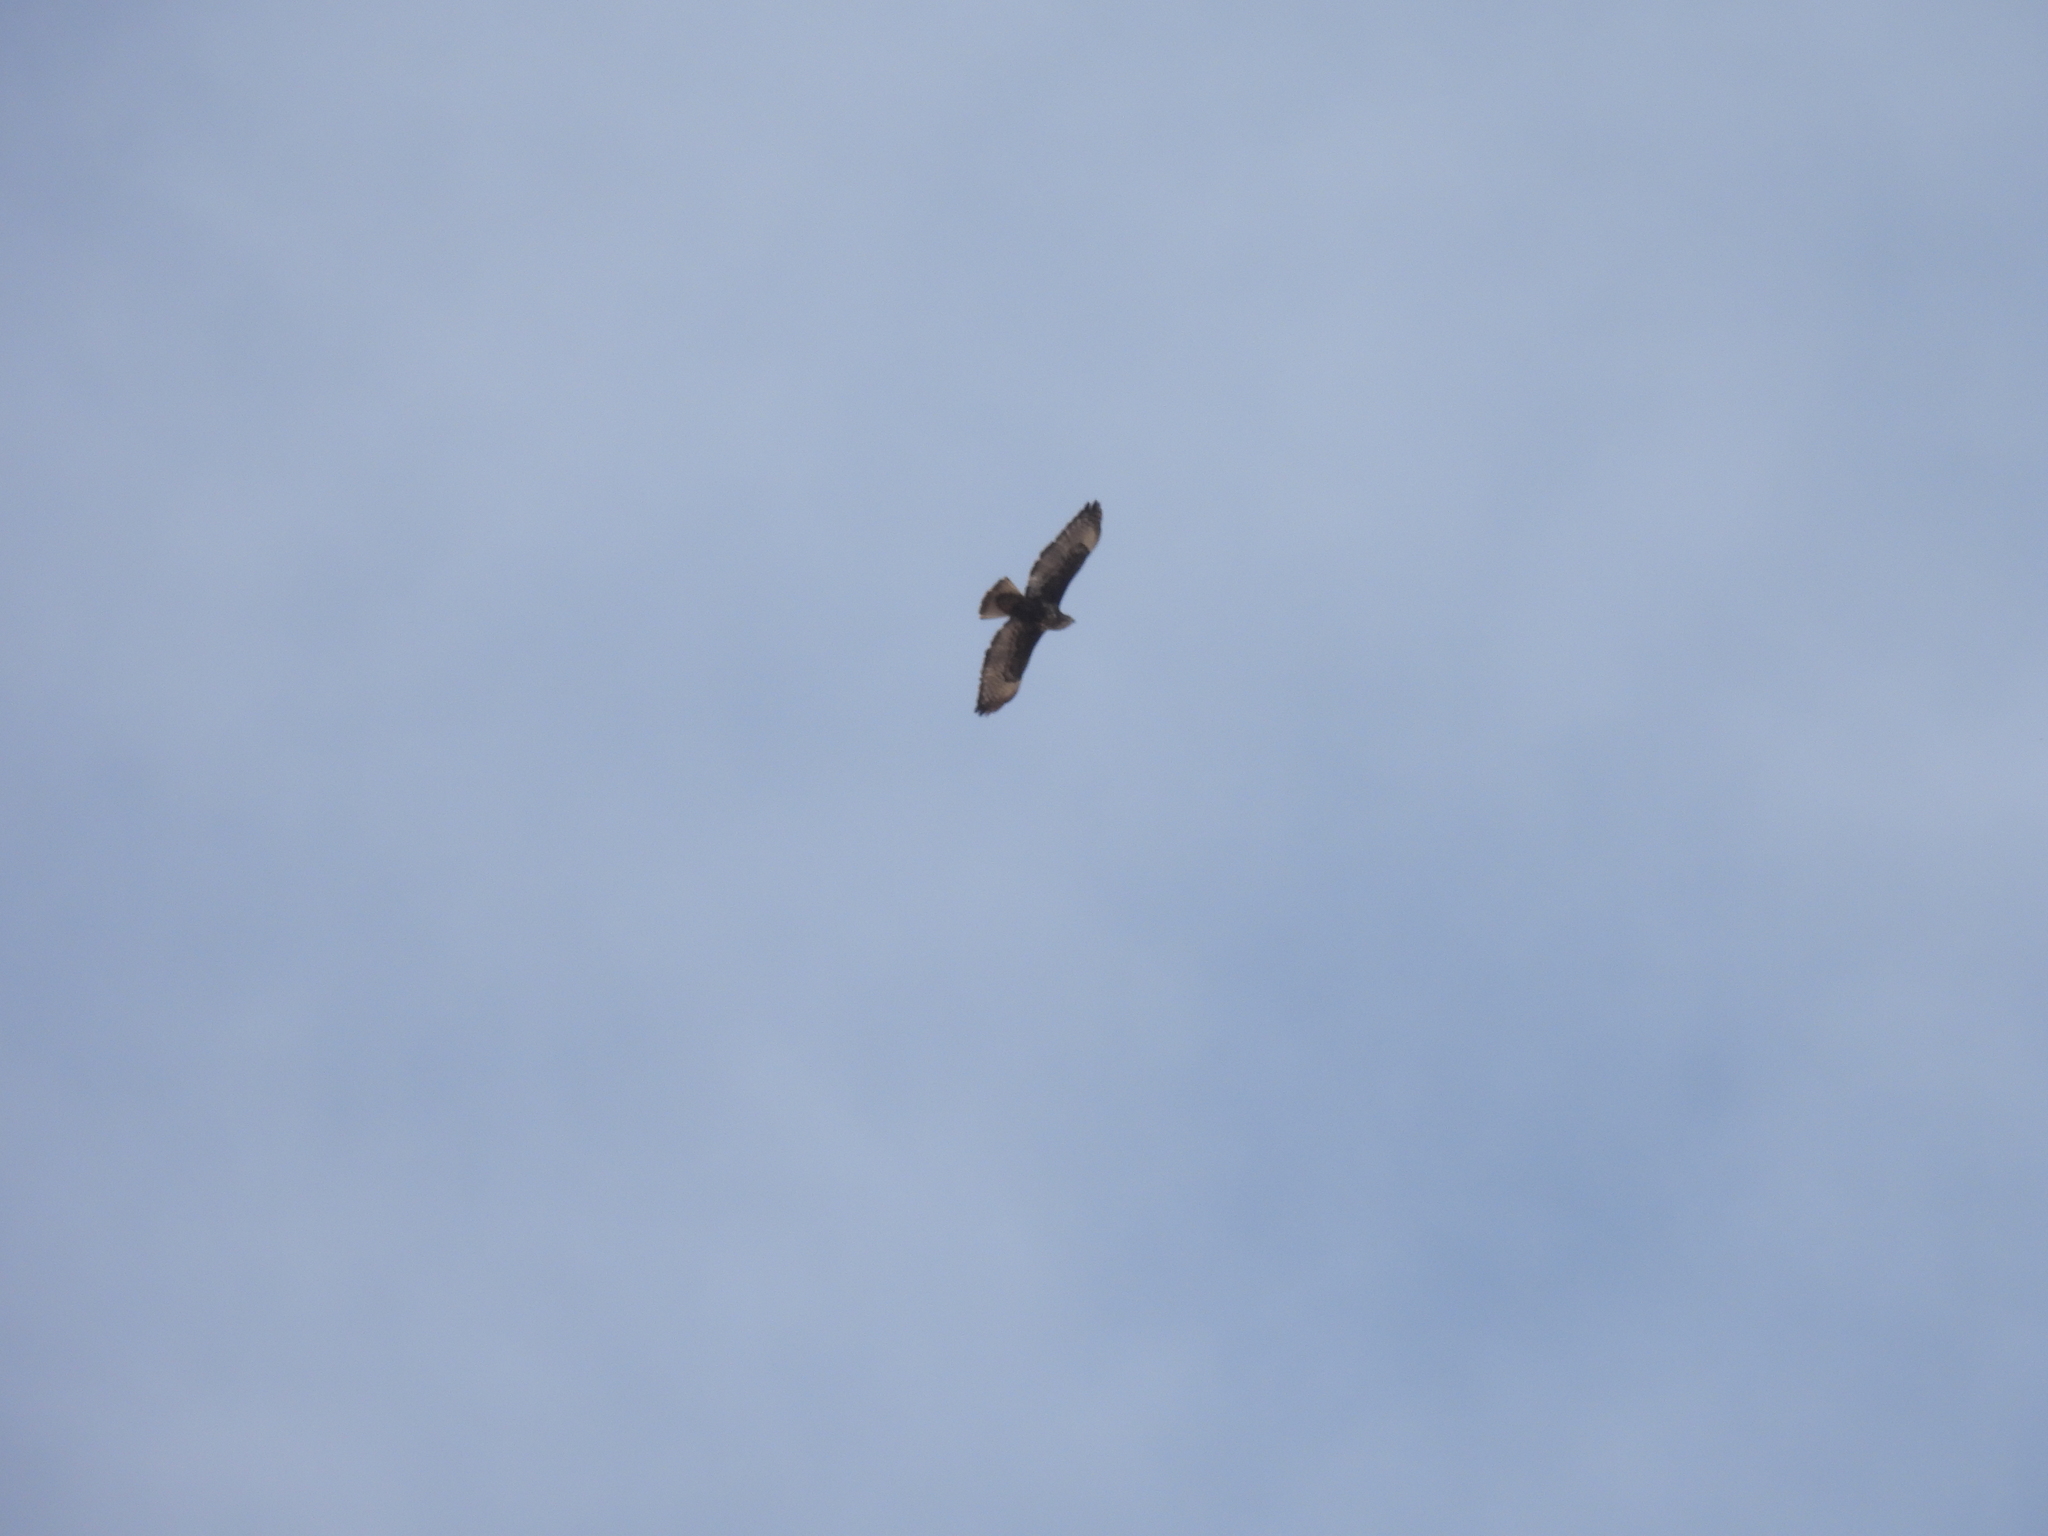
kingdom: Animalia
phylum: Chordata
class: Aves
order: Accipitriformes
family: Accipitridae
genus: Buteo
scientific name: Buteo jamaicensis
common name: Red-tailed hawk
